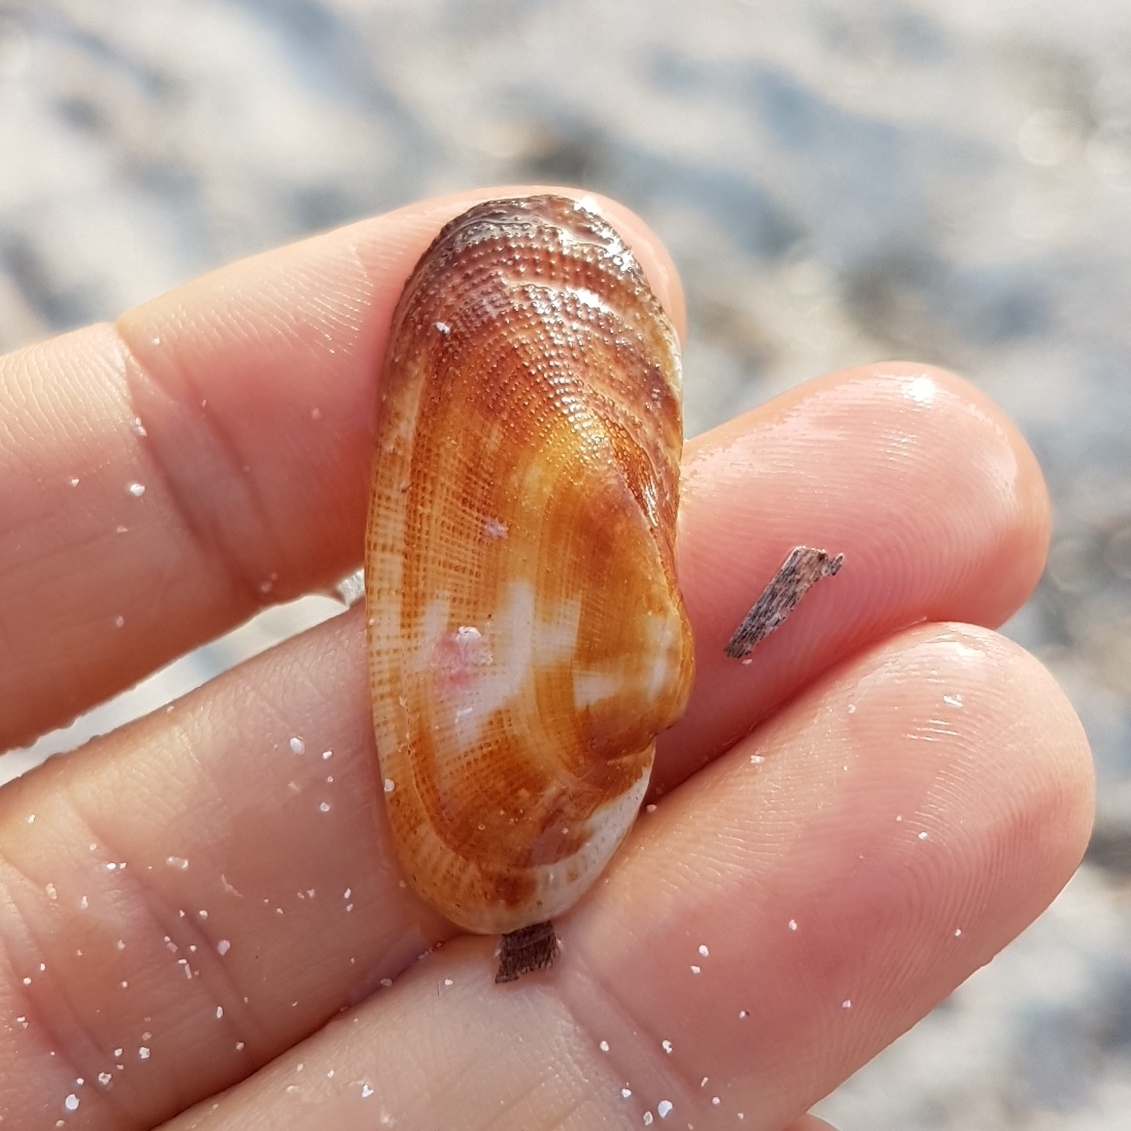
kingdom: Animalia
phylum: Mollusca
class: Bivalvia
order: Arcida
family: Arcidae
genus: Barbatia
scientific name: Barbatia barbata
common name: Bearded ark
